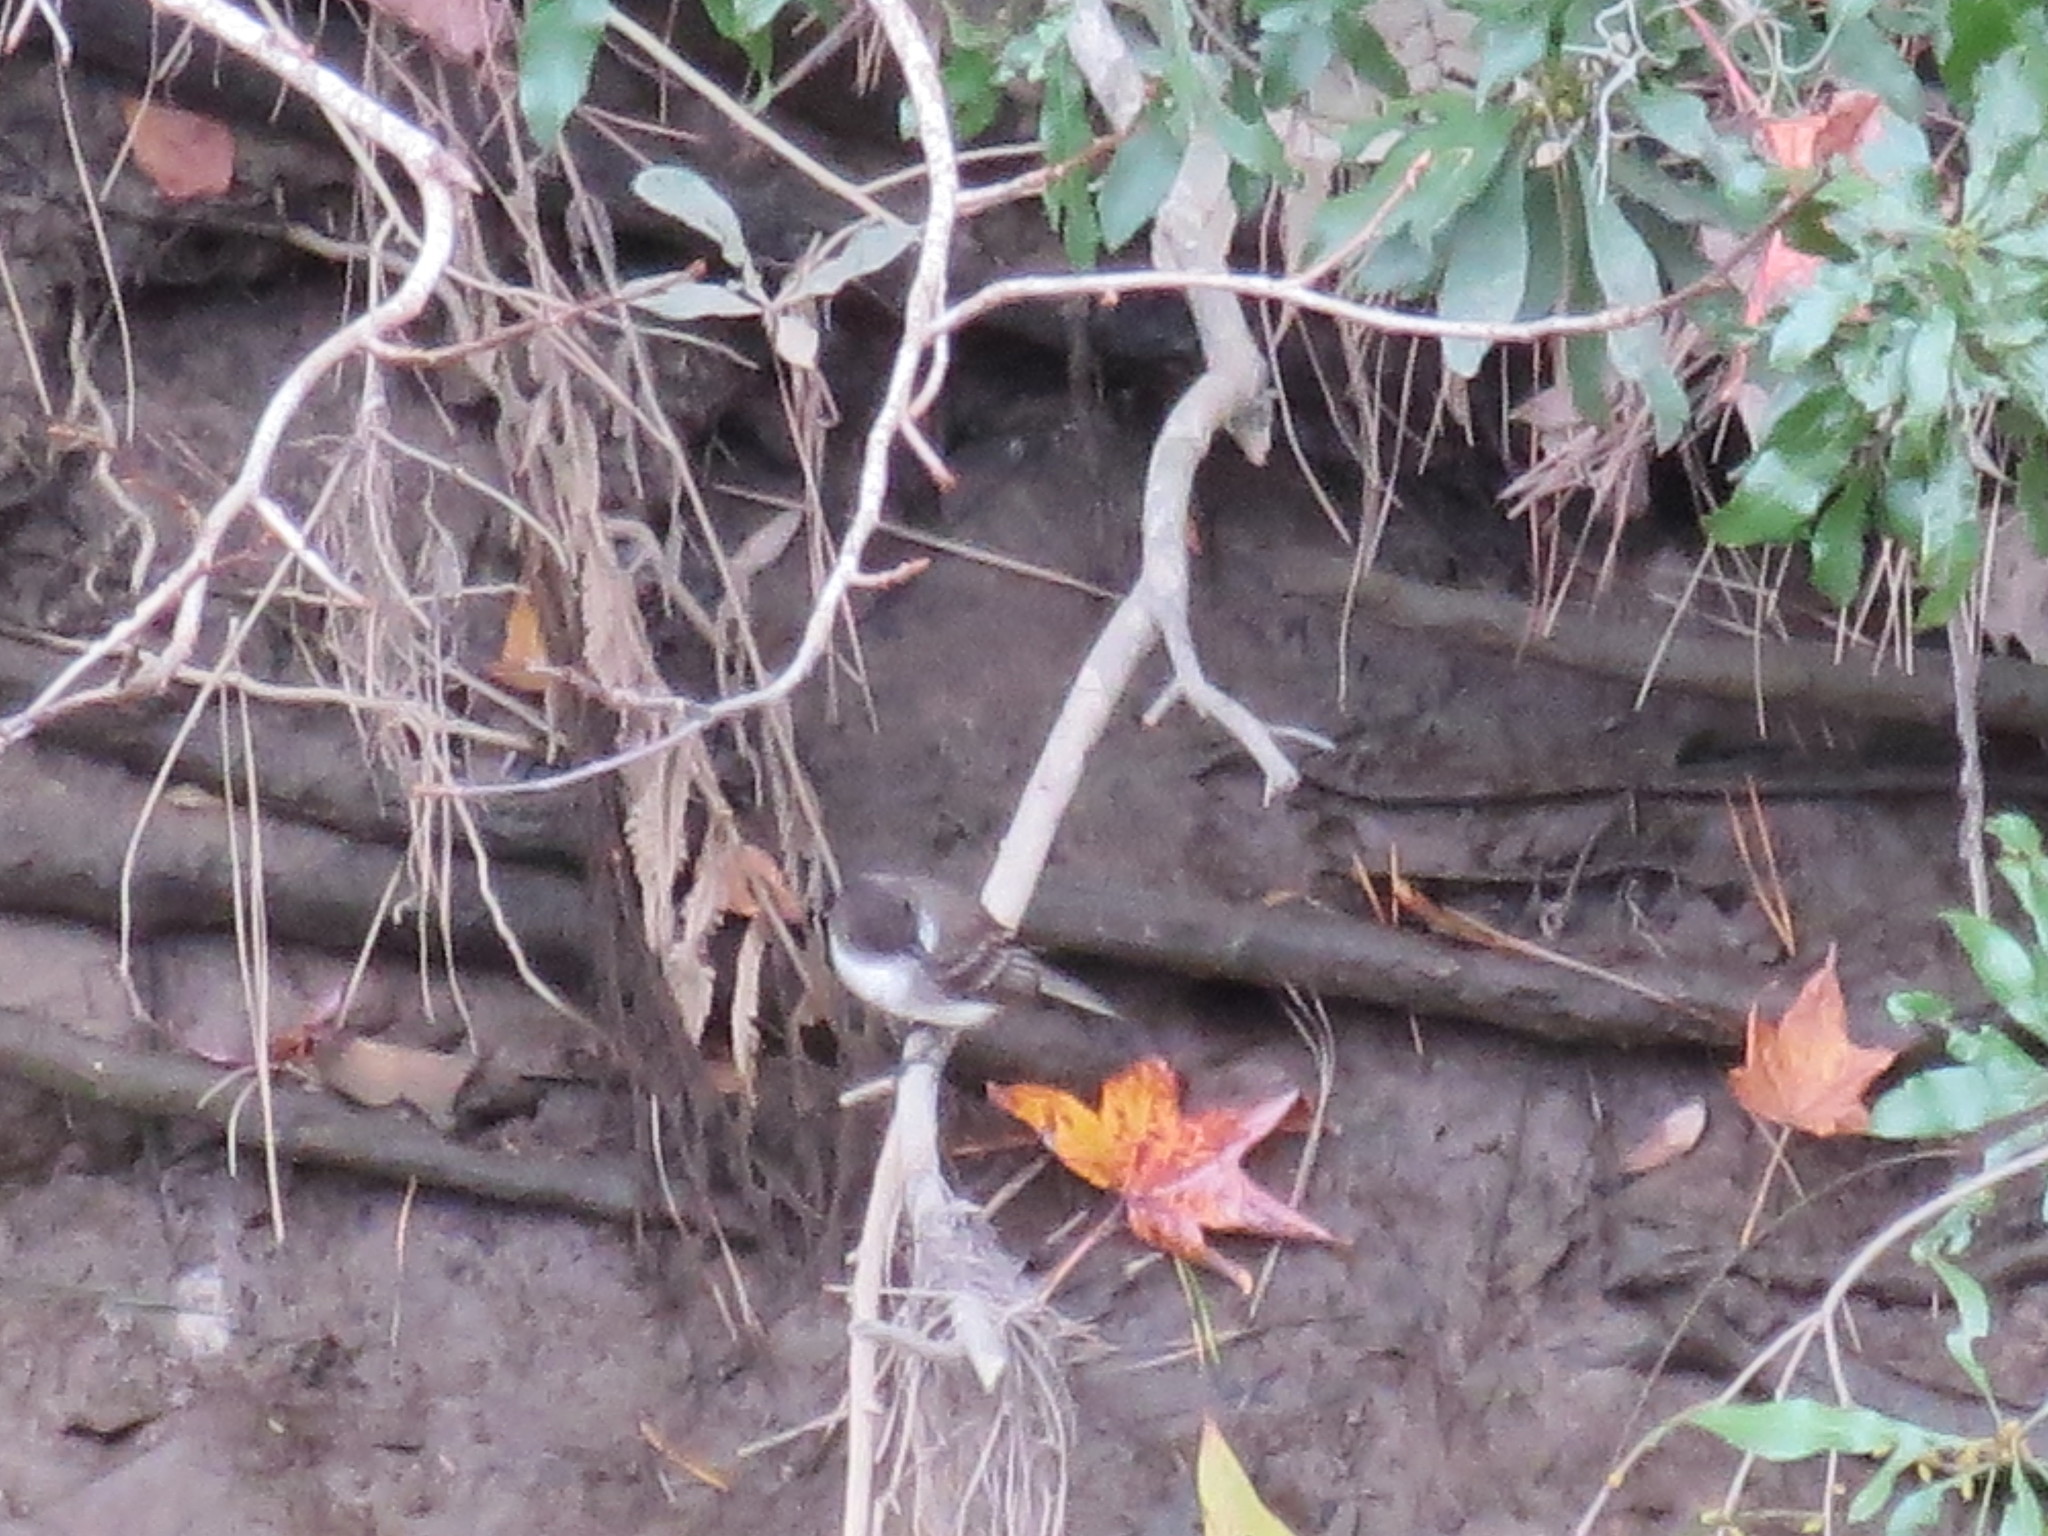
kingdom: Animalia
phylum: Chordata
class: Aves
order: Passeriformes
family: Tyrannidae
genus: Sayornis
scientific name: Sayornis phoebe
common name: Eastern phoebe
